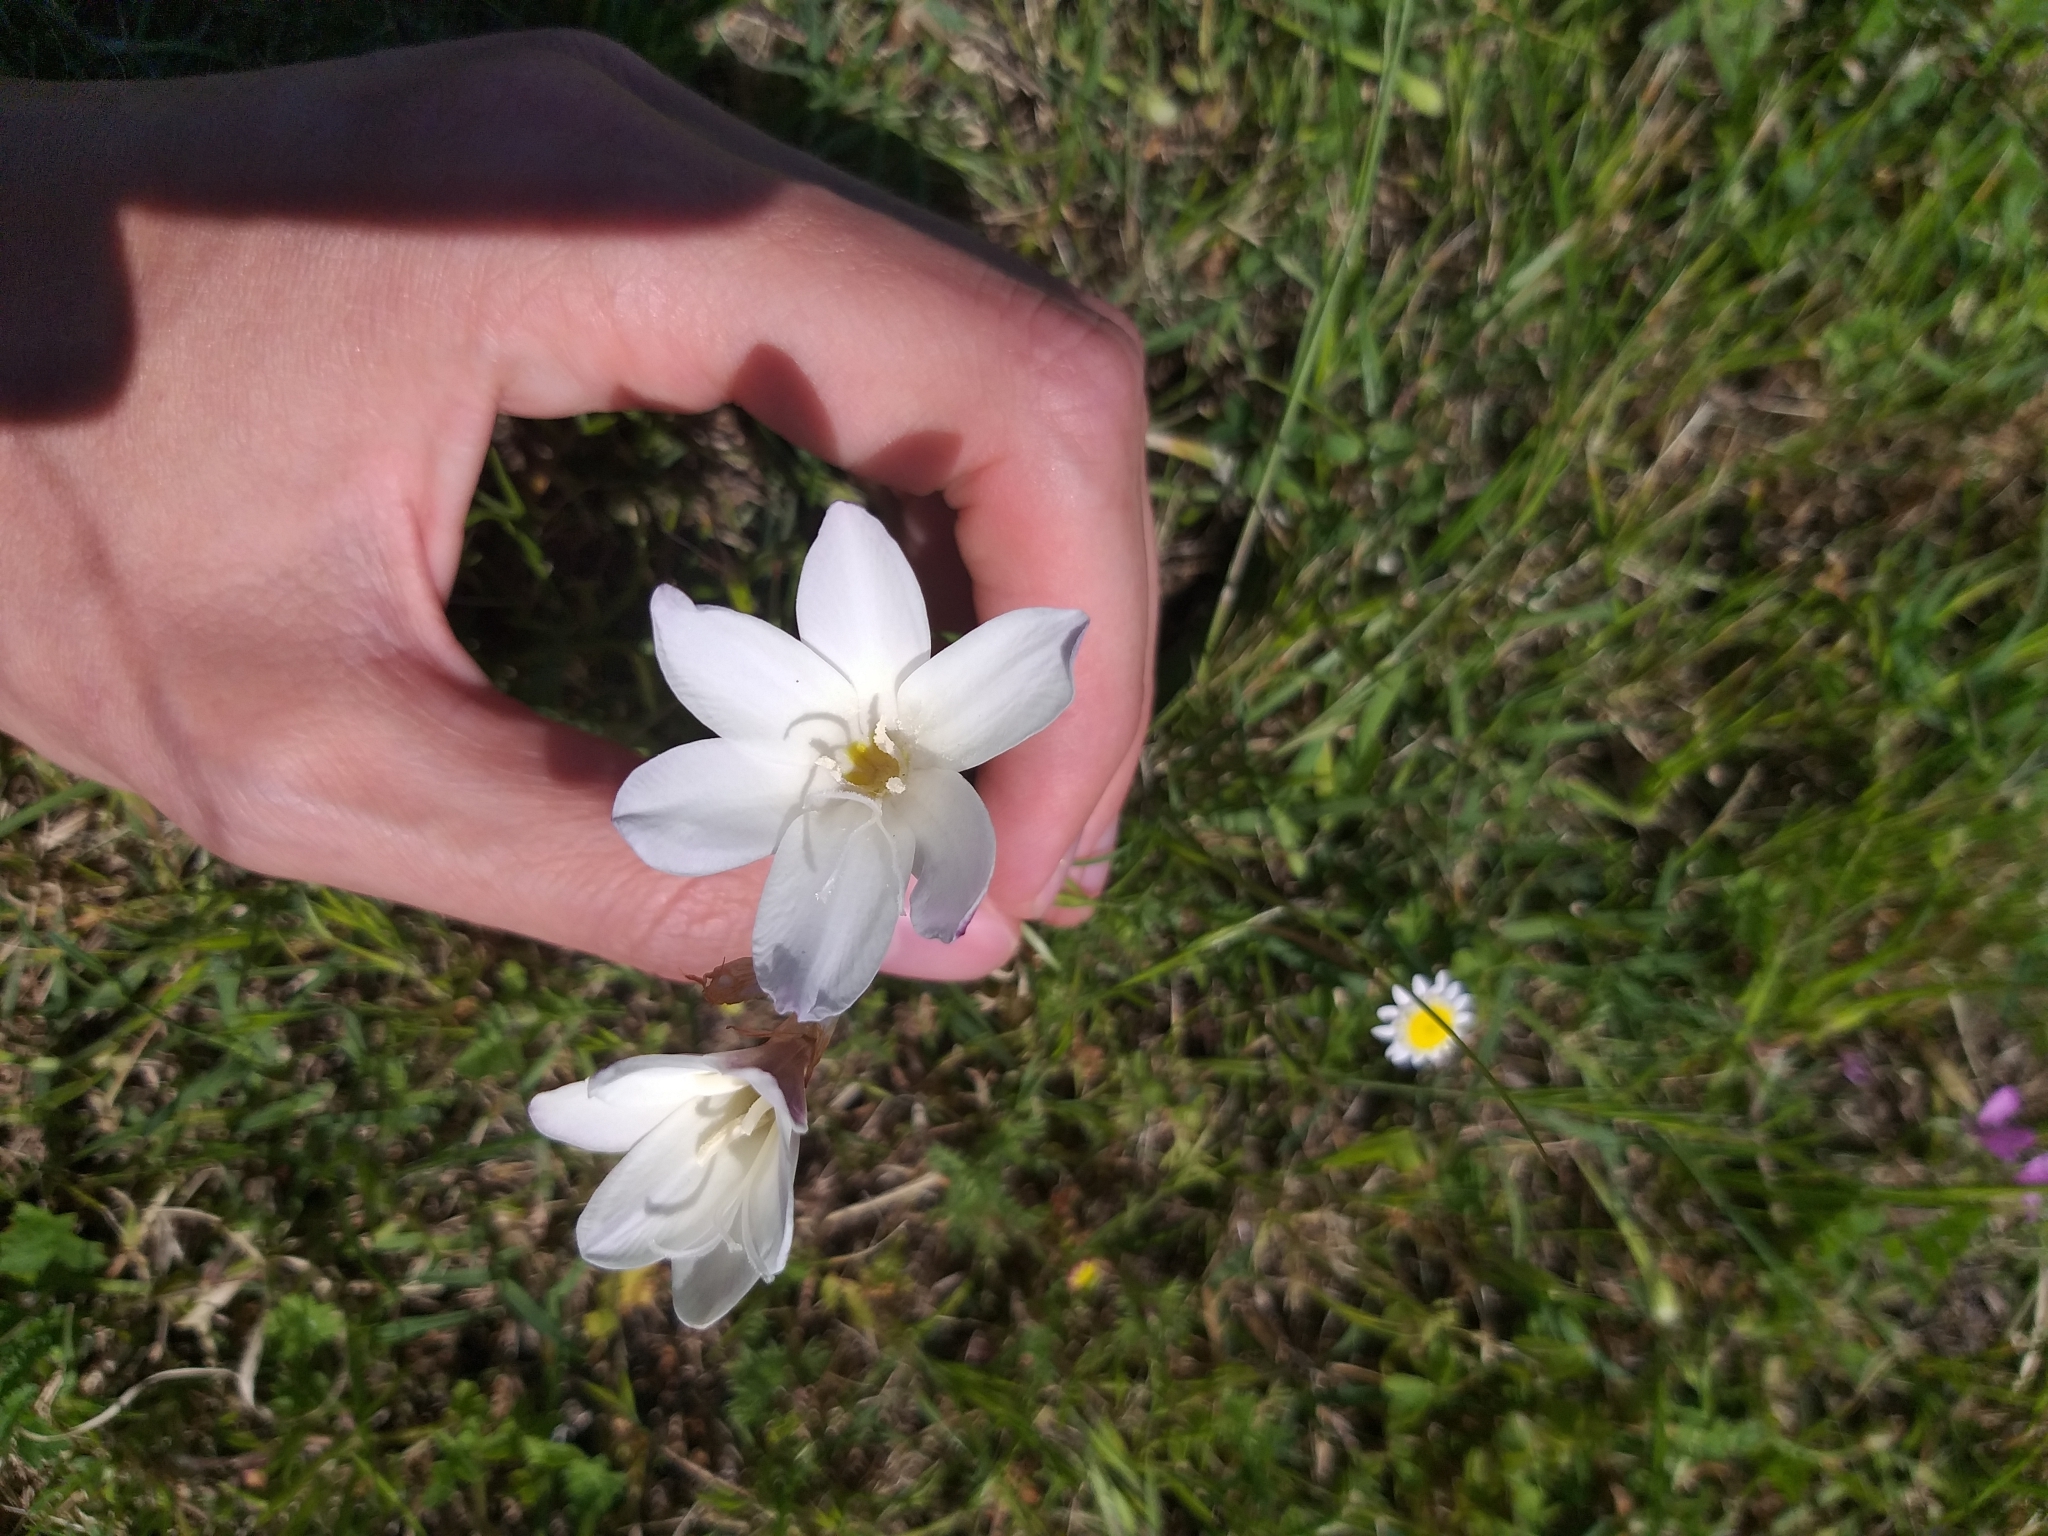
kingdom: Plantae
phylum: Tracheophyta
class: Liliopsida
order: Asparagales
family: Iridaceae
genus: Sparaxis
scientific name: Sparaxis bulbifera
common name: Harlequin-flower
